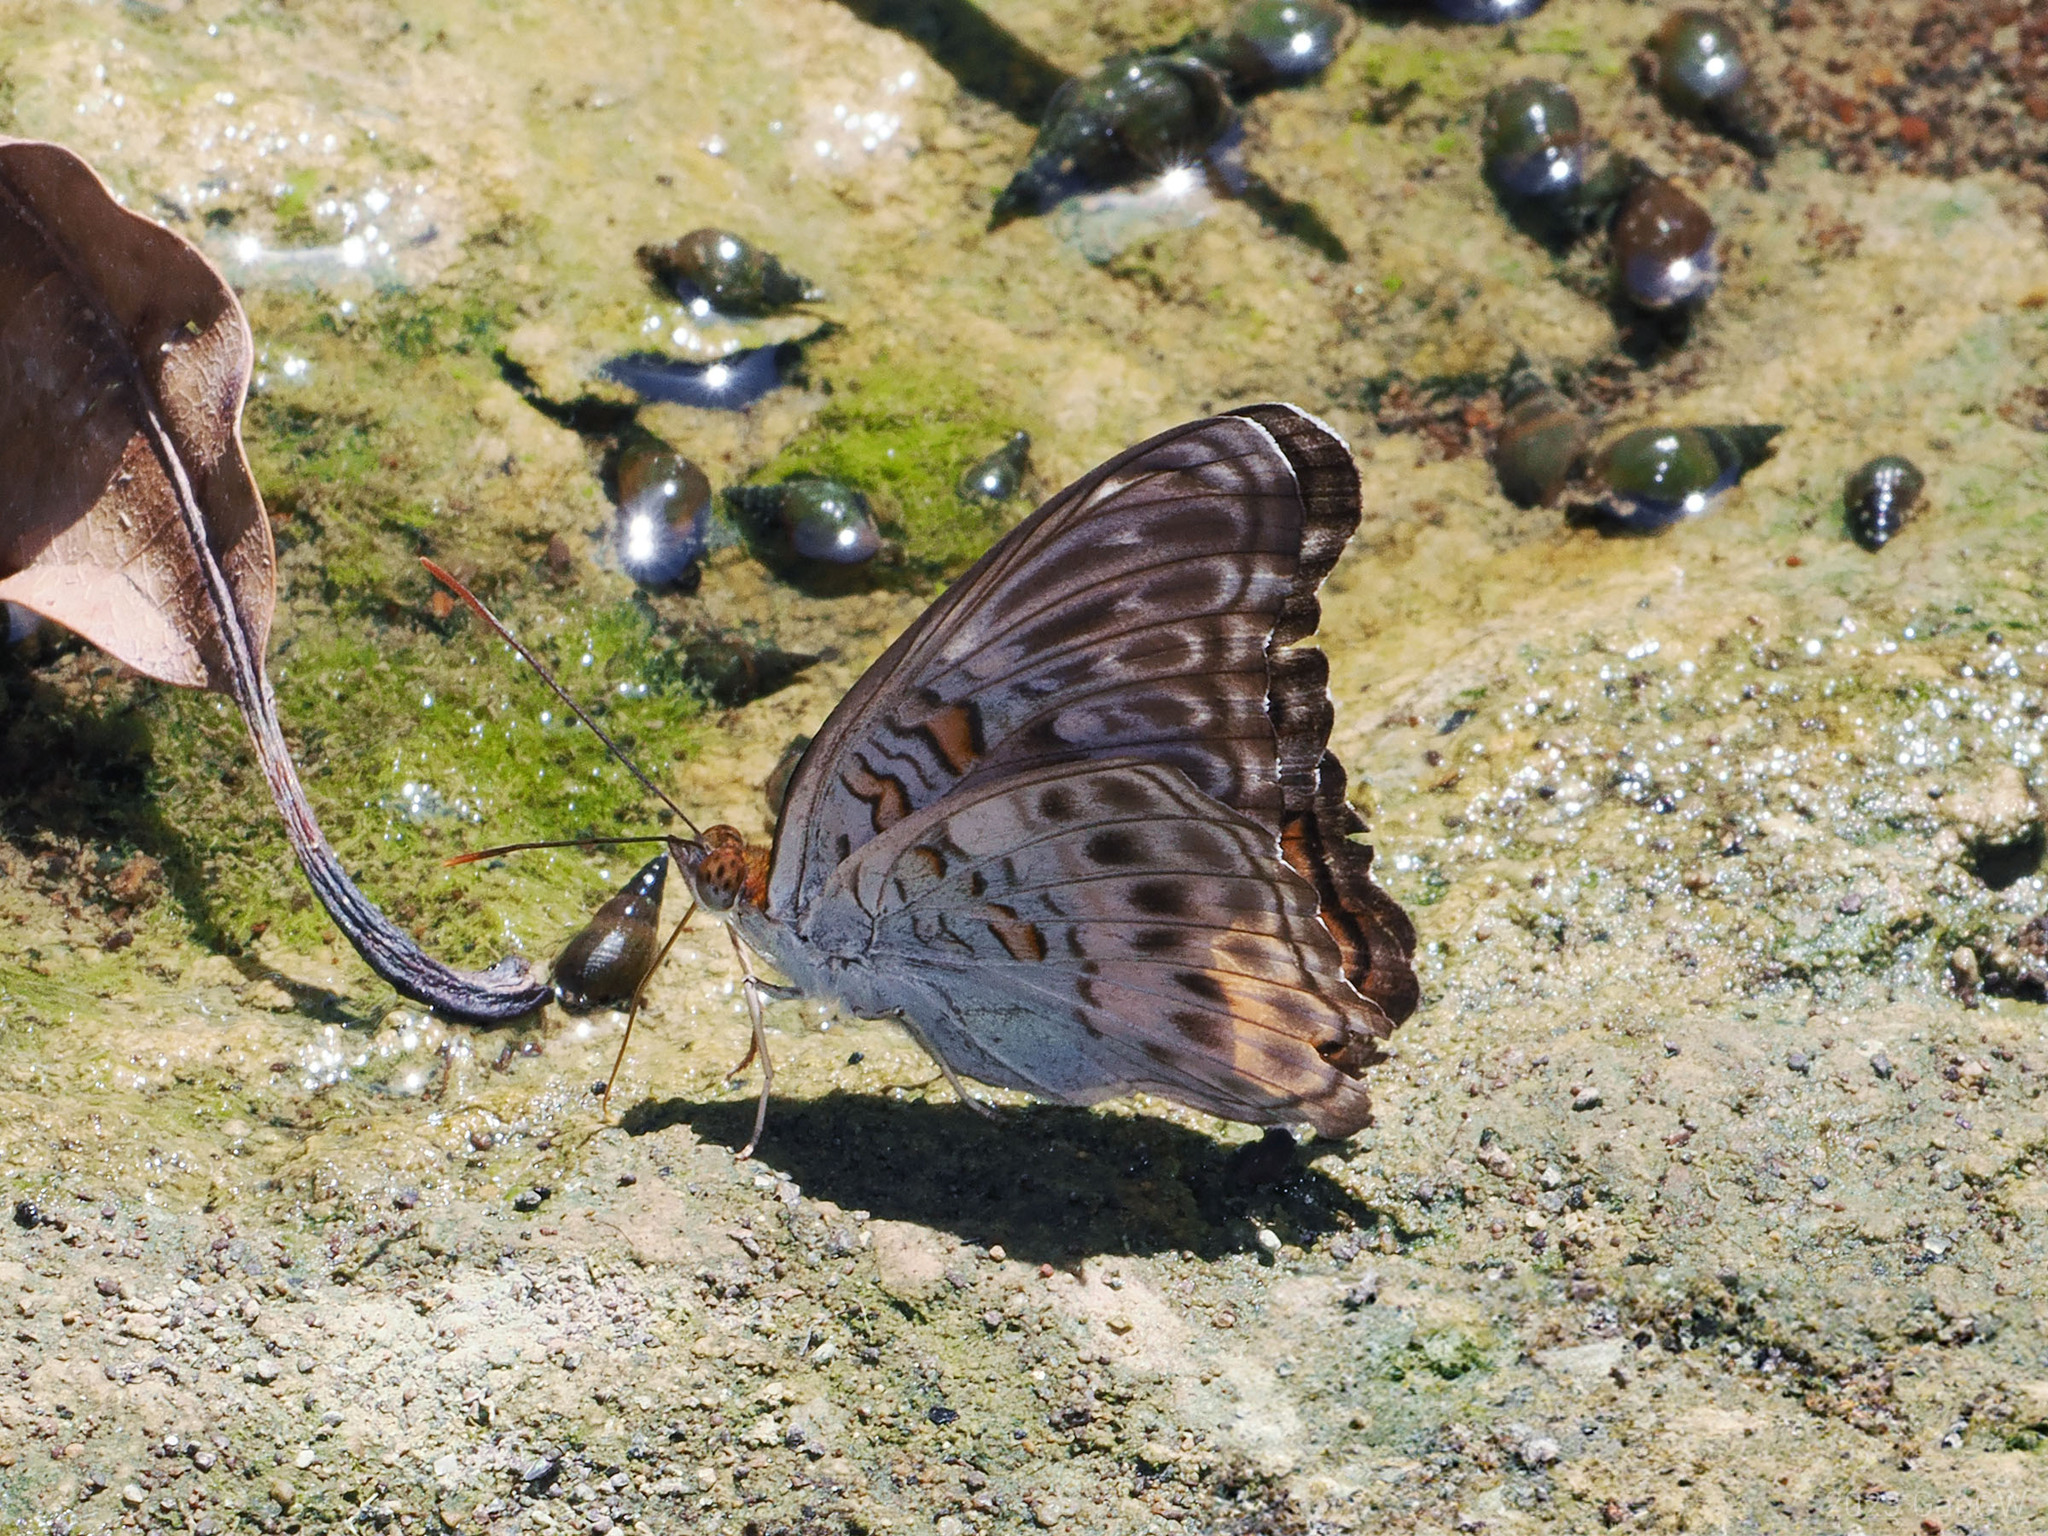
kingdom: Animalia
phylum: Arthropoda
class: Insecta
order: Lepidoptera
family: Nymphalidae
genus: Limenitis
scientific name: Limenitis
